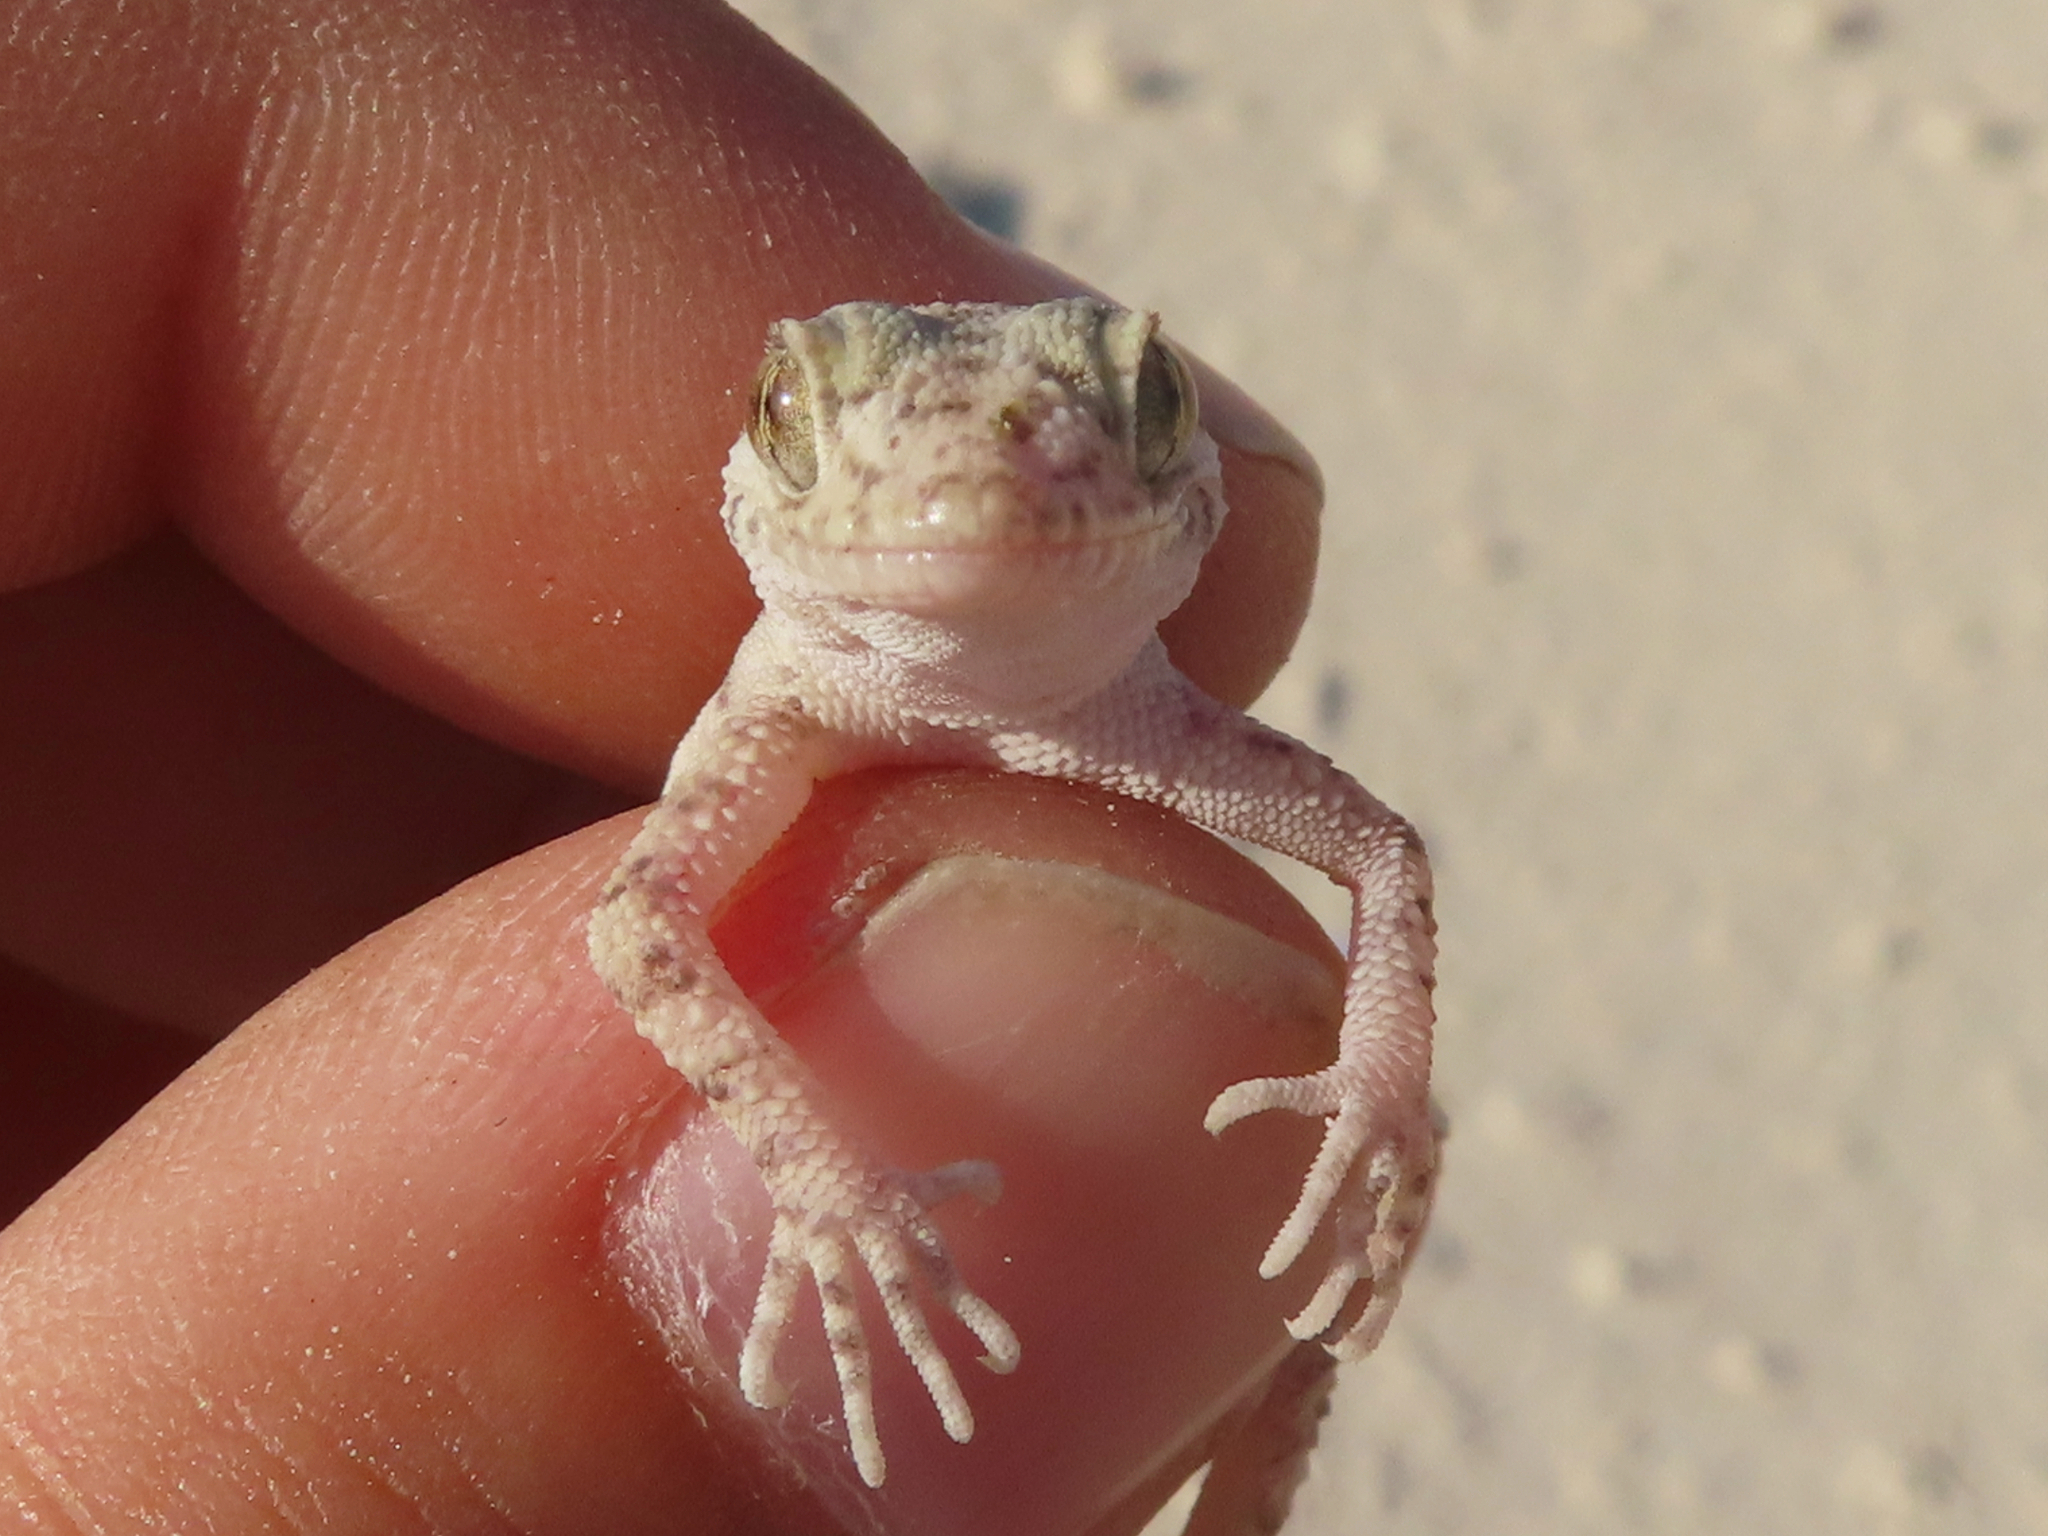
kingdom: Animalia
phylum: Chordata
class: Squamata
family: Gekkonidae
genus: Cyrtopodion
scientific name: Cyrtopodion scabrum
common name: Rough-tailed gecko
